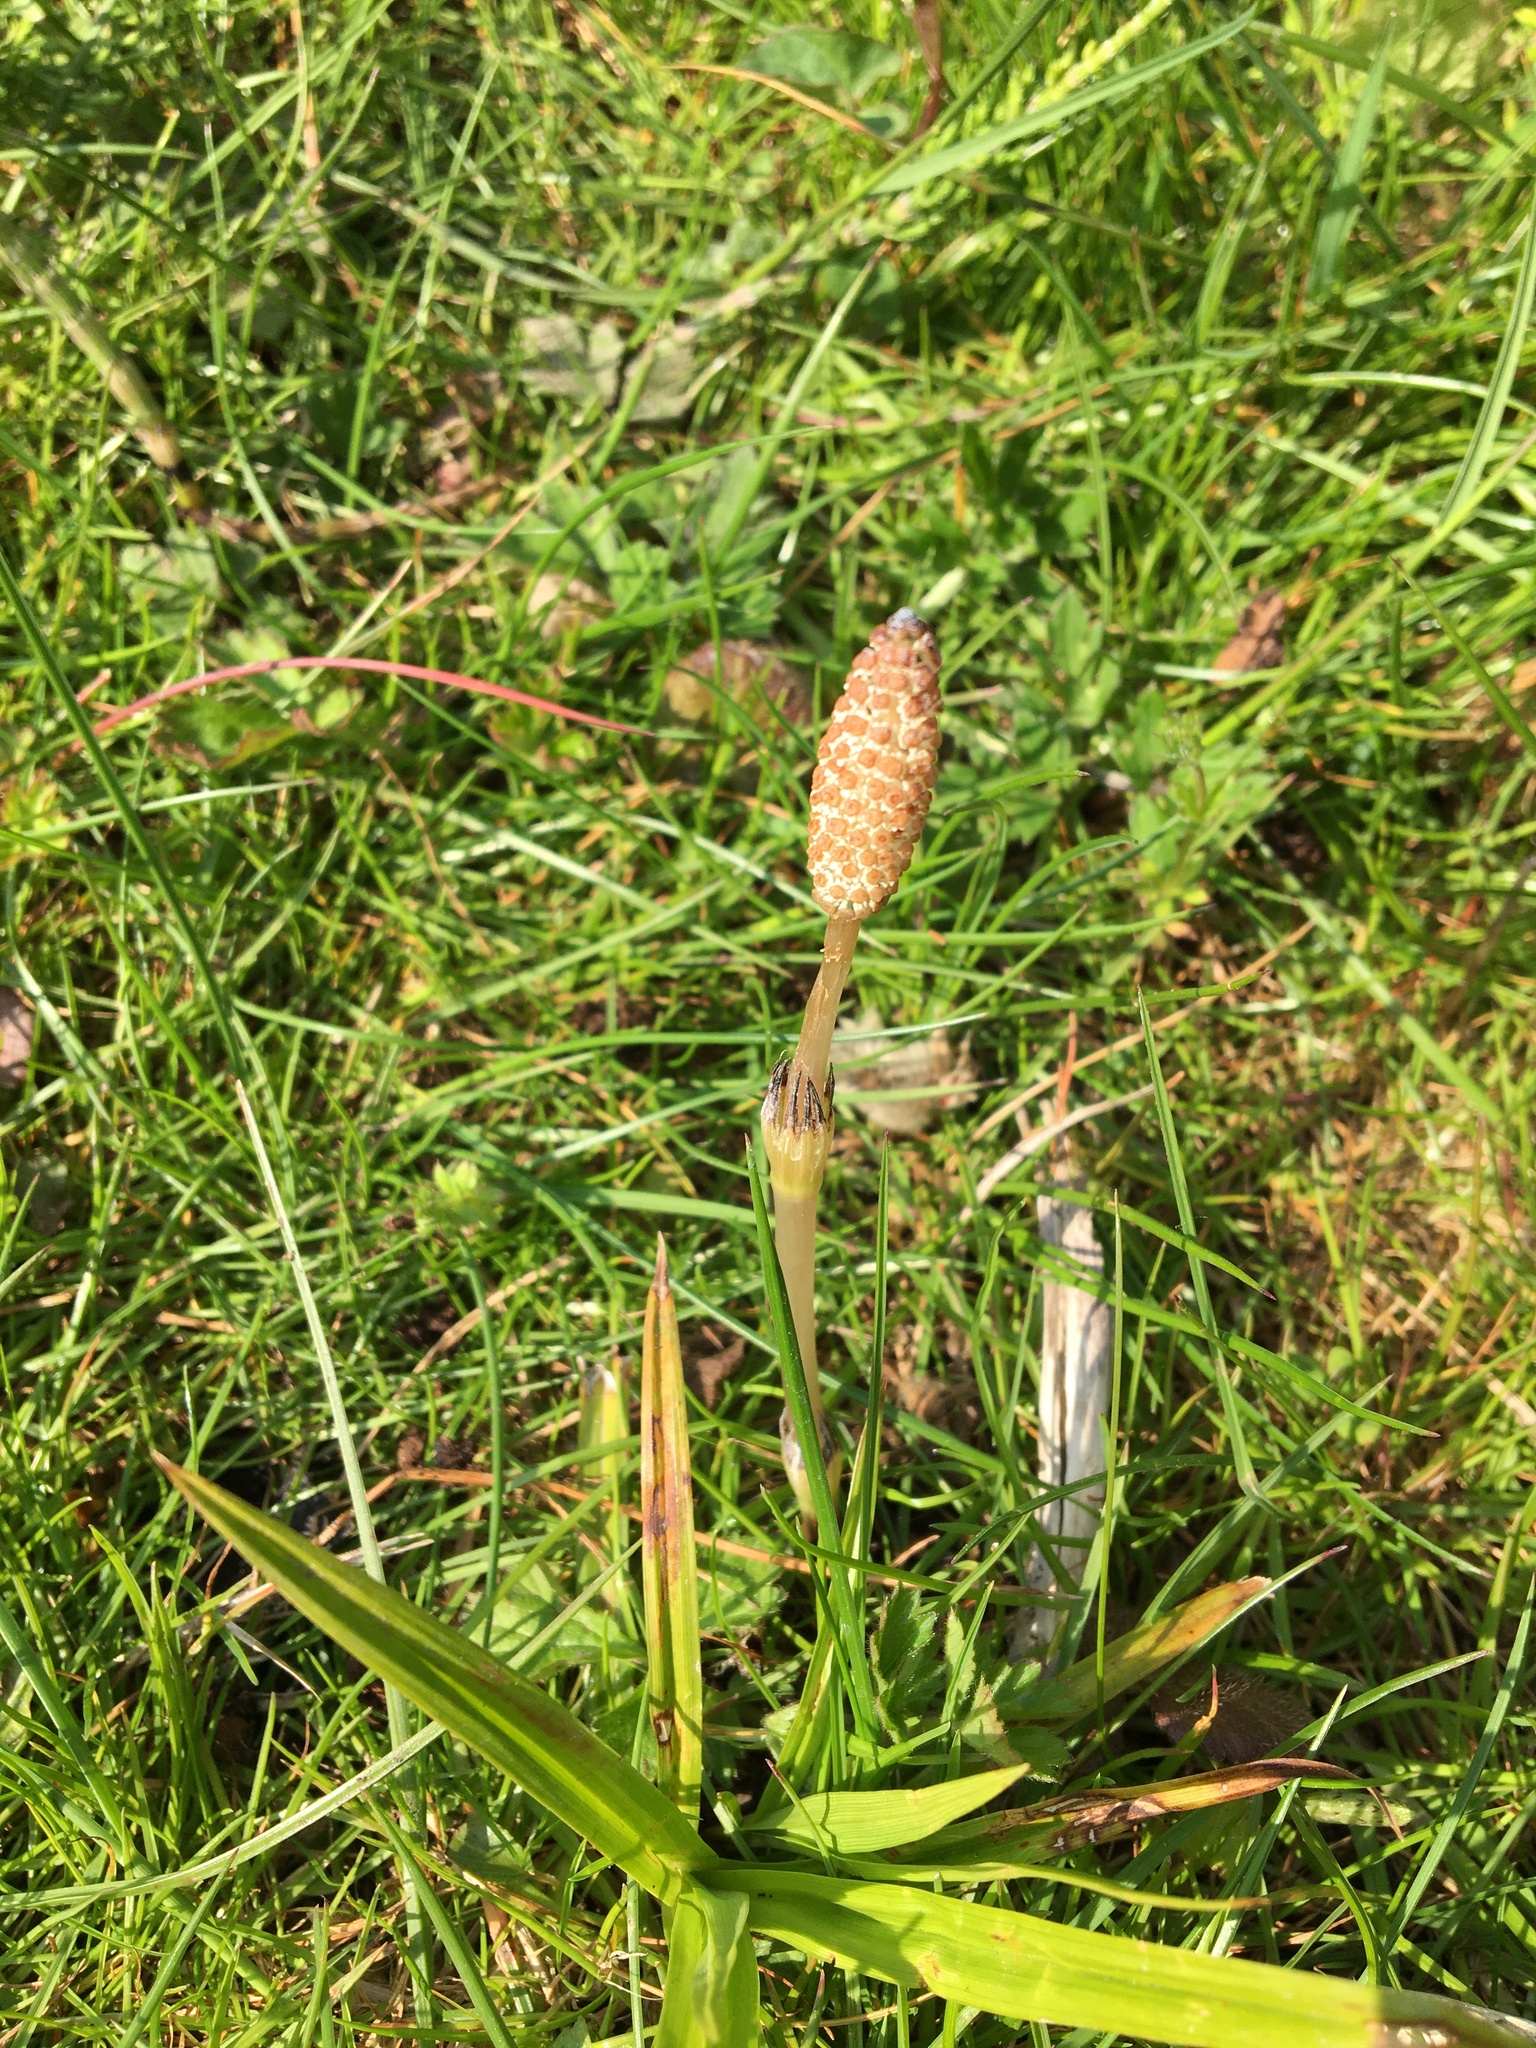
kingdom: Plantae
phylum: Tracheophyta
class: Polypodiopsida
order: Equisetales
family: Equisetaceae
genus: Equisetum
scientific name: Equisetum arvense
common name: Field horsetail
